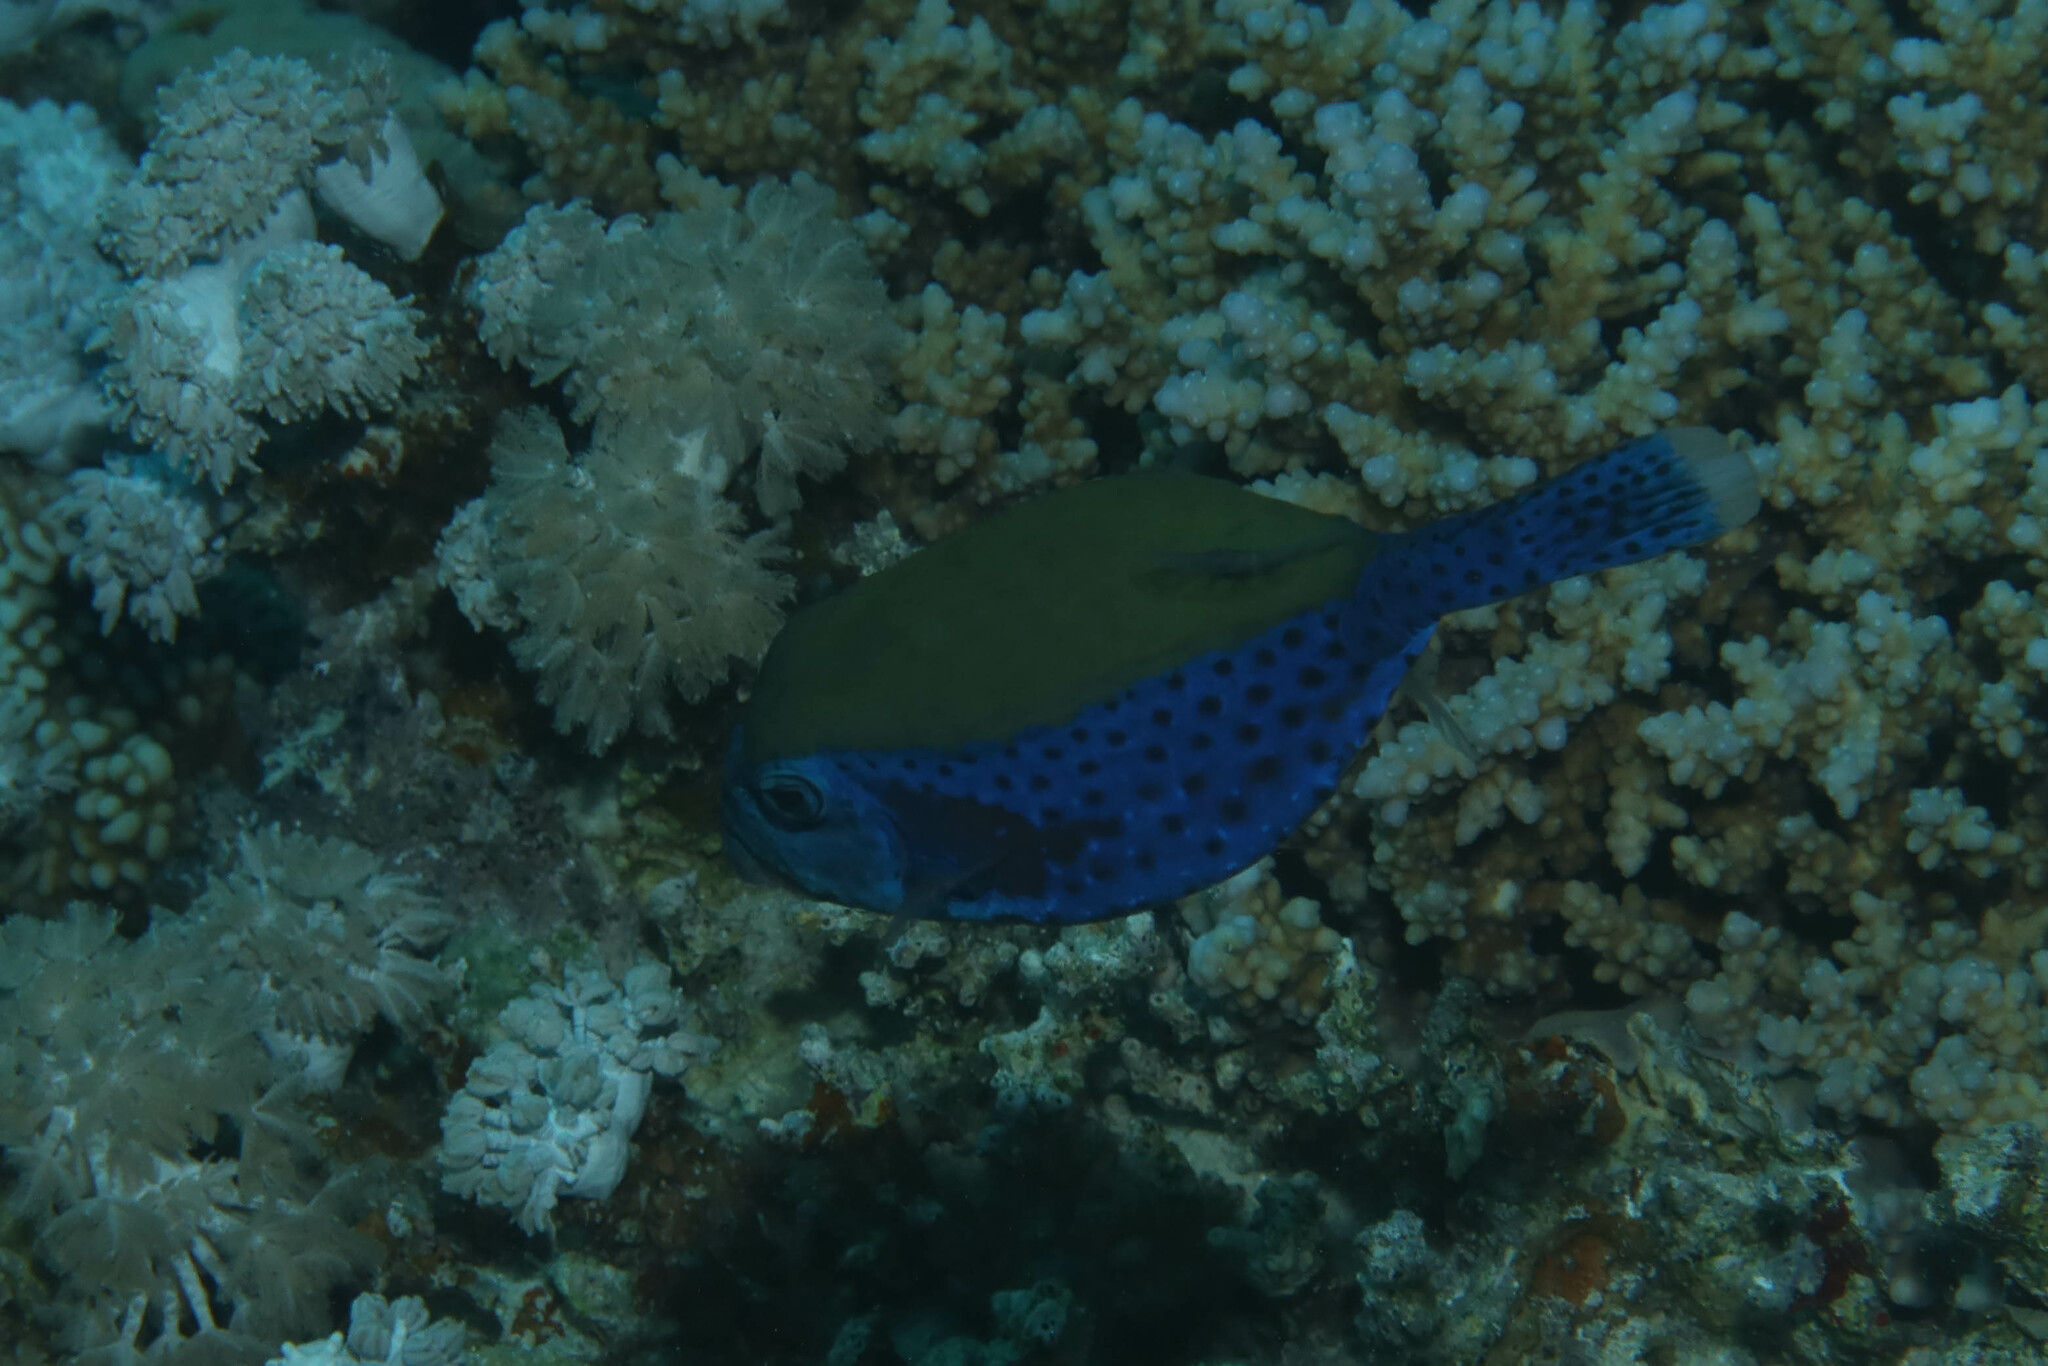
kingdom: Animalia
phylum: Chordata
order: Tetraodontiformes
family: Ostraciidae
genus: Ostracion
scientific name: Ostracion cyanurus
